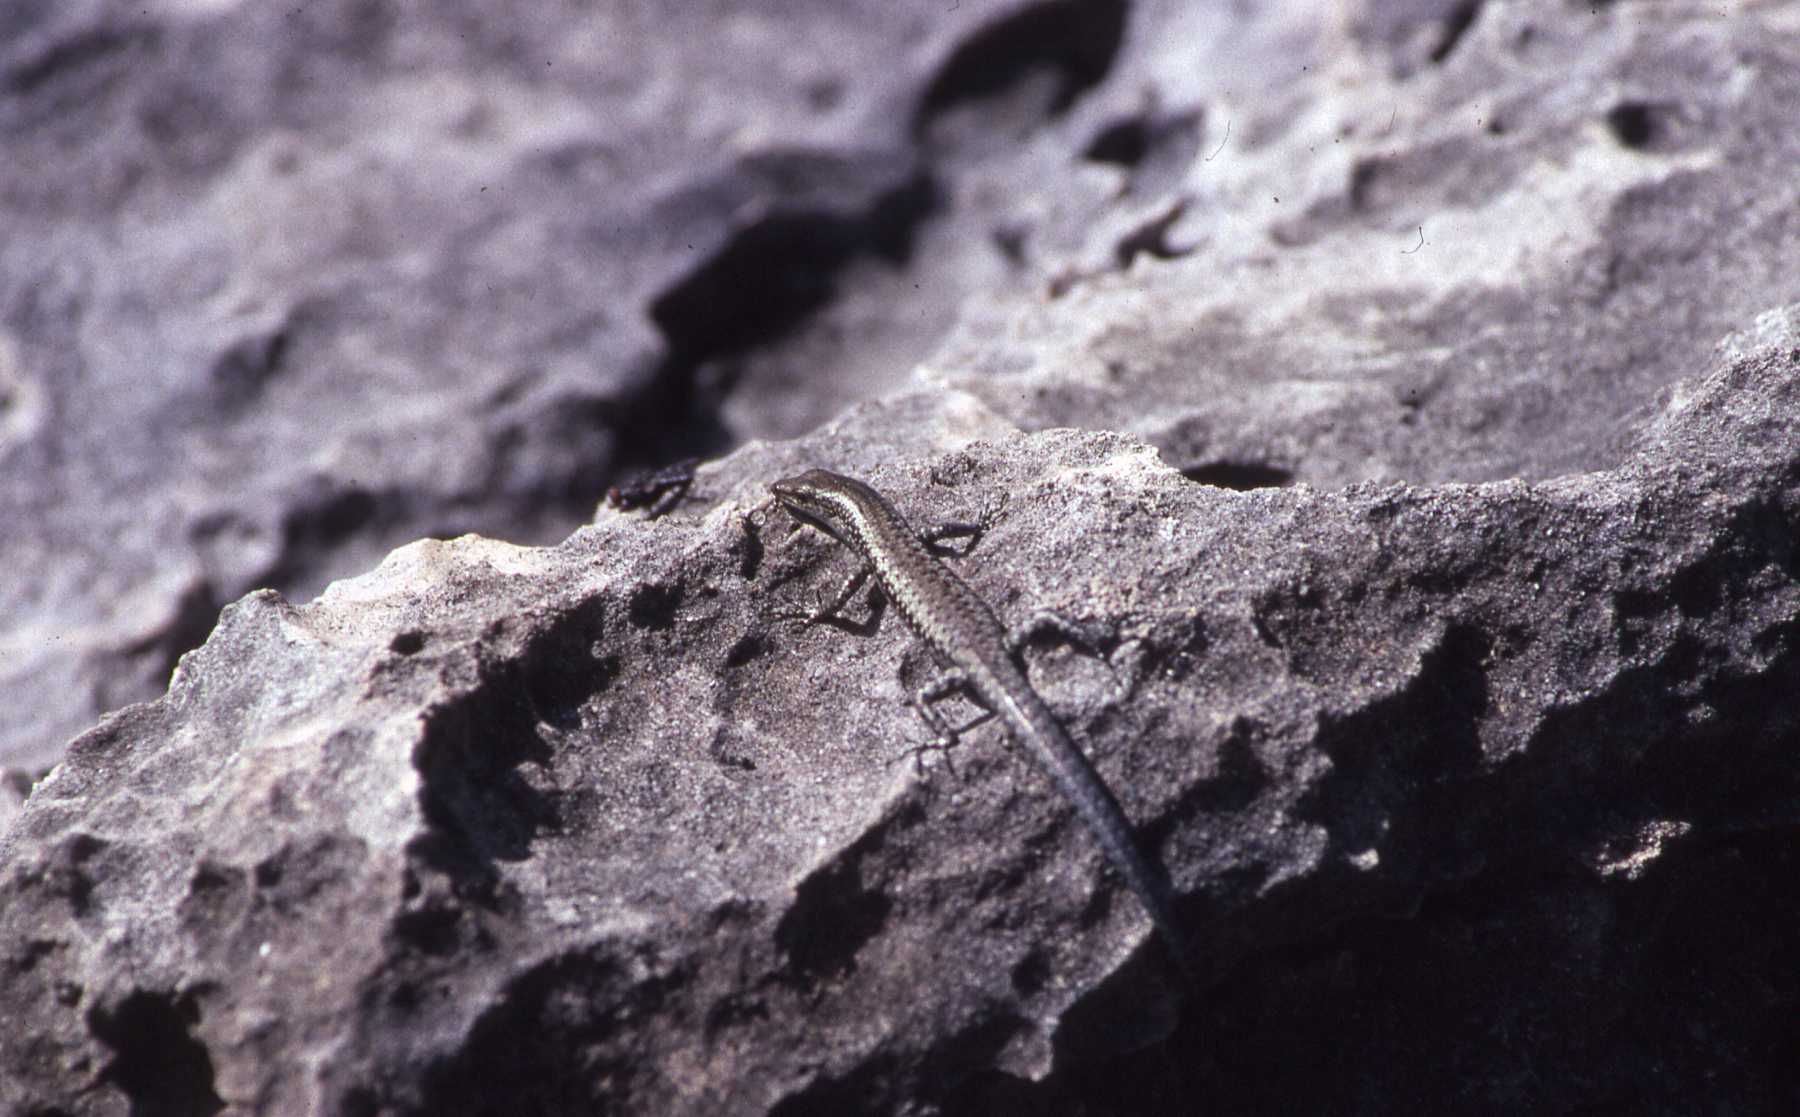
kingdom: Animalia
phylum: Chordata
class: Squamata
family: Scincidae
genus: Cryptoblepharus
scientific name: Cryptoblepharus boutonii
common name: Snake-eyed skink
